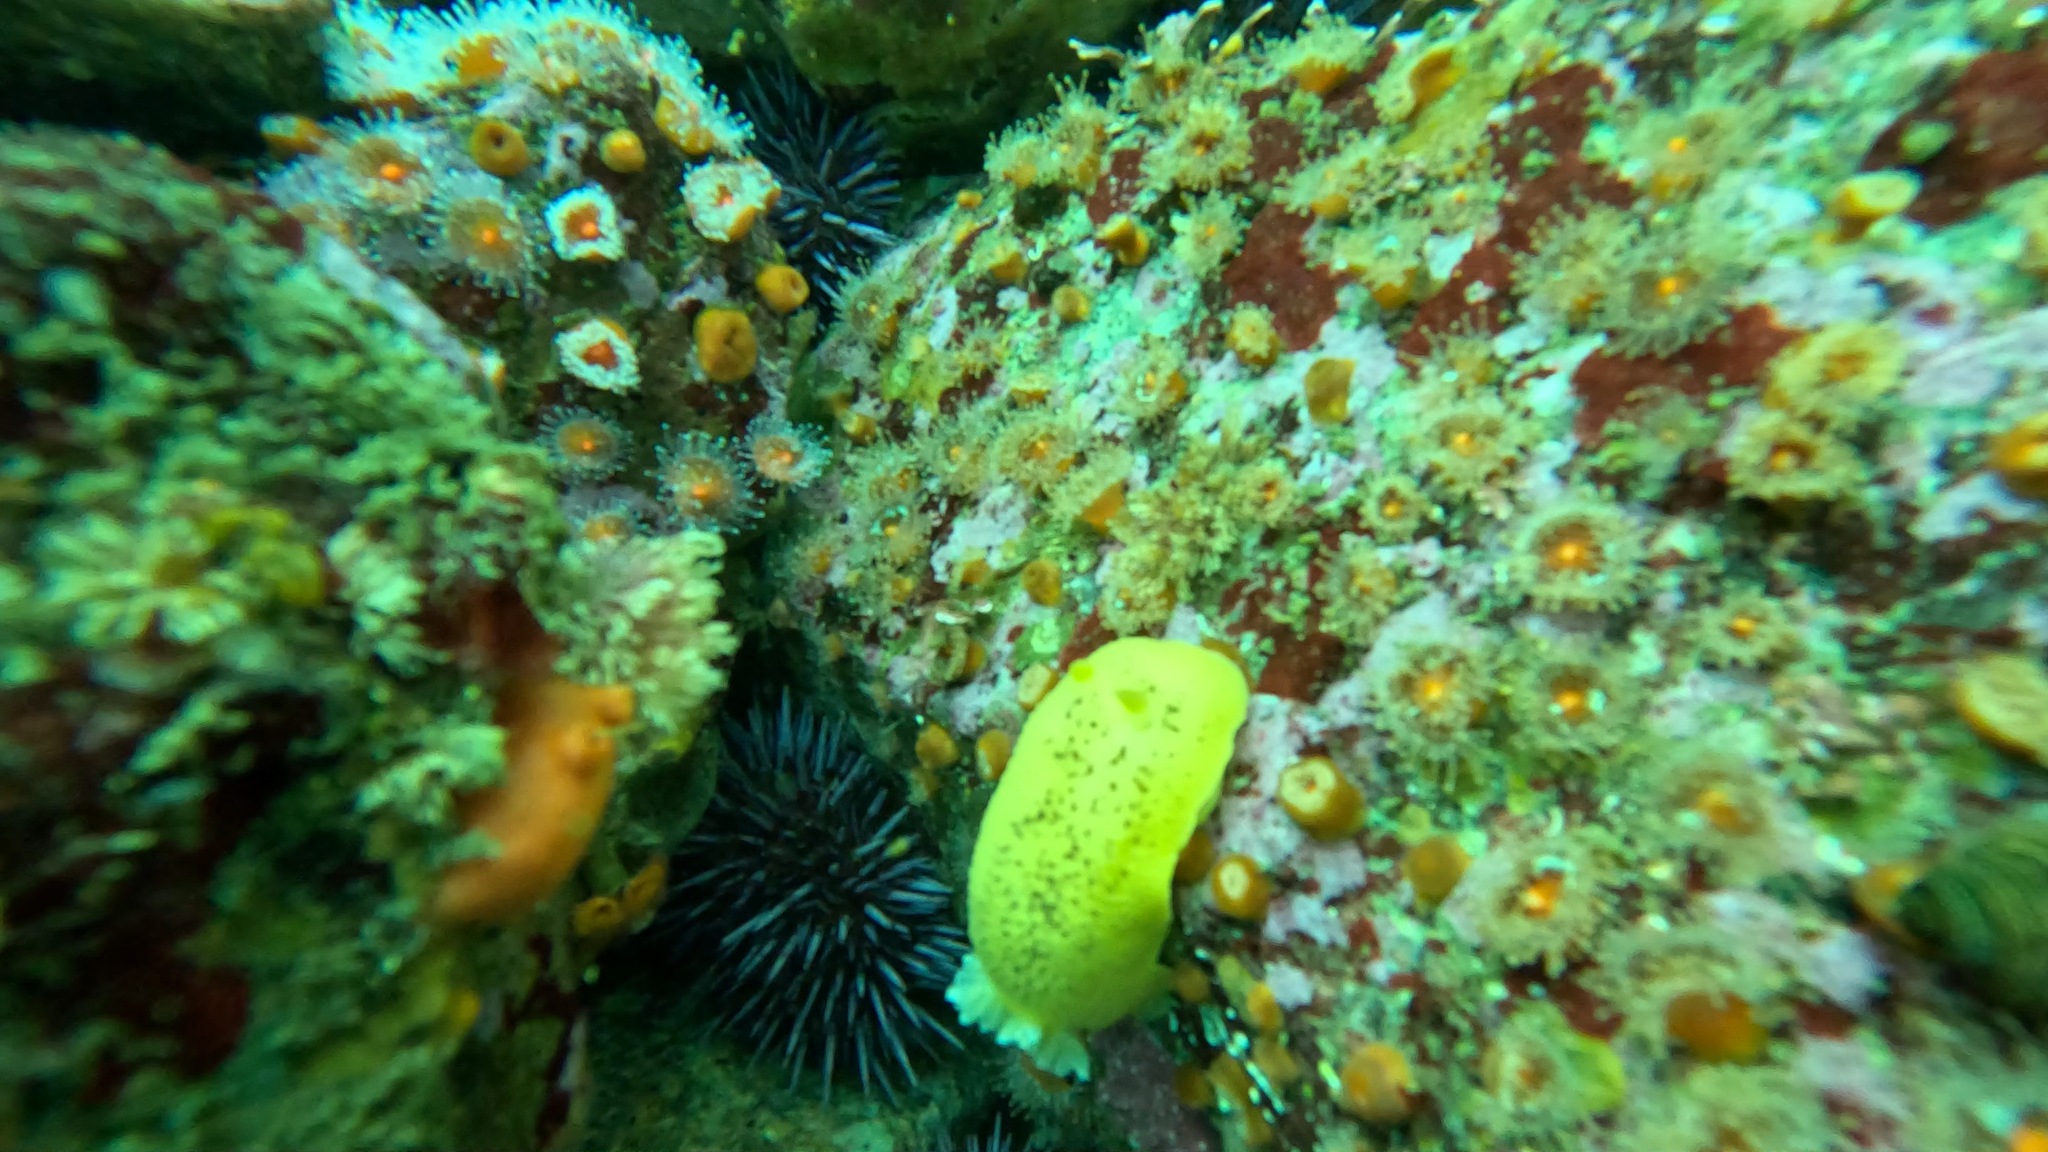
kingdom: Animalia
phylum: Mollusca
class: Gastropoda
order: Nudibranchia
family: Discodorididae
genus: Peltodoris
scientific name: Peltodoris nobilis
